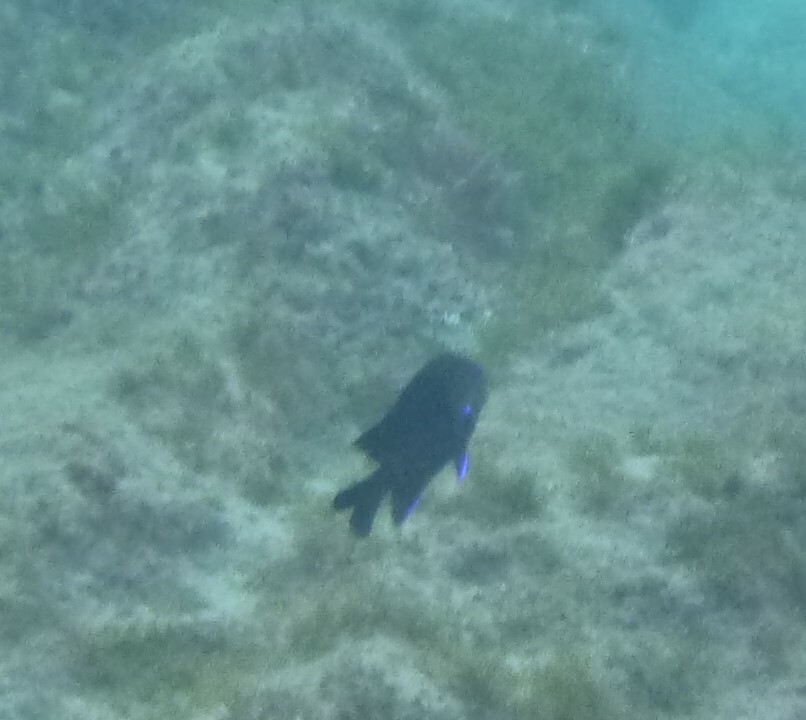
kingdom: Animalia
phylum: Chordata
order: Perciformes
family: Pomacentridae
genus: Similiparma
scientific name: Similiparma lurida
